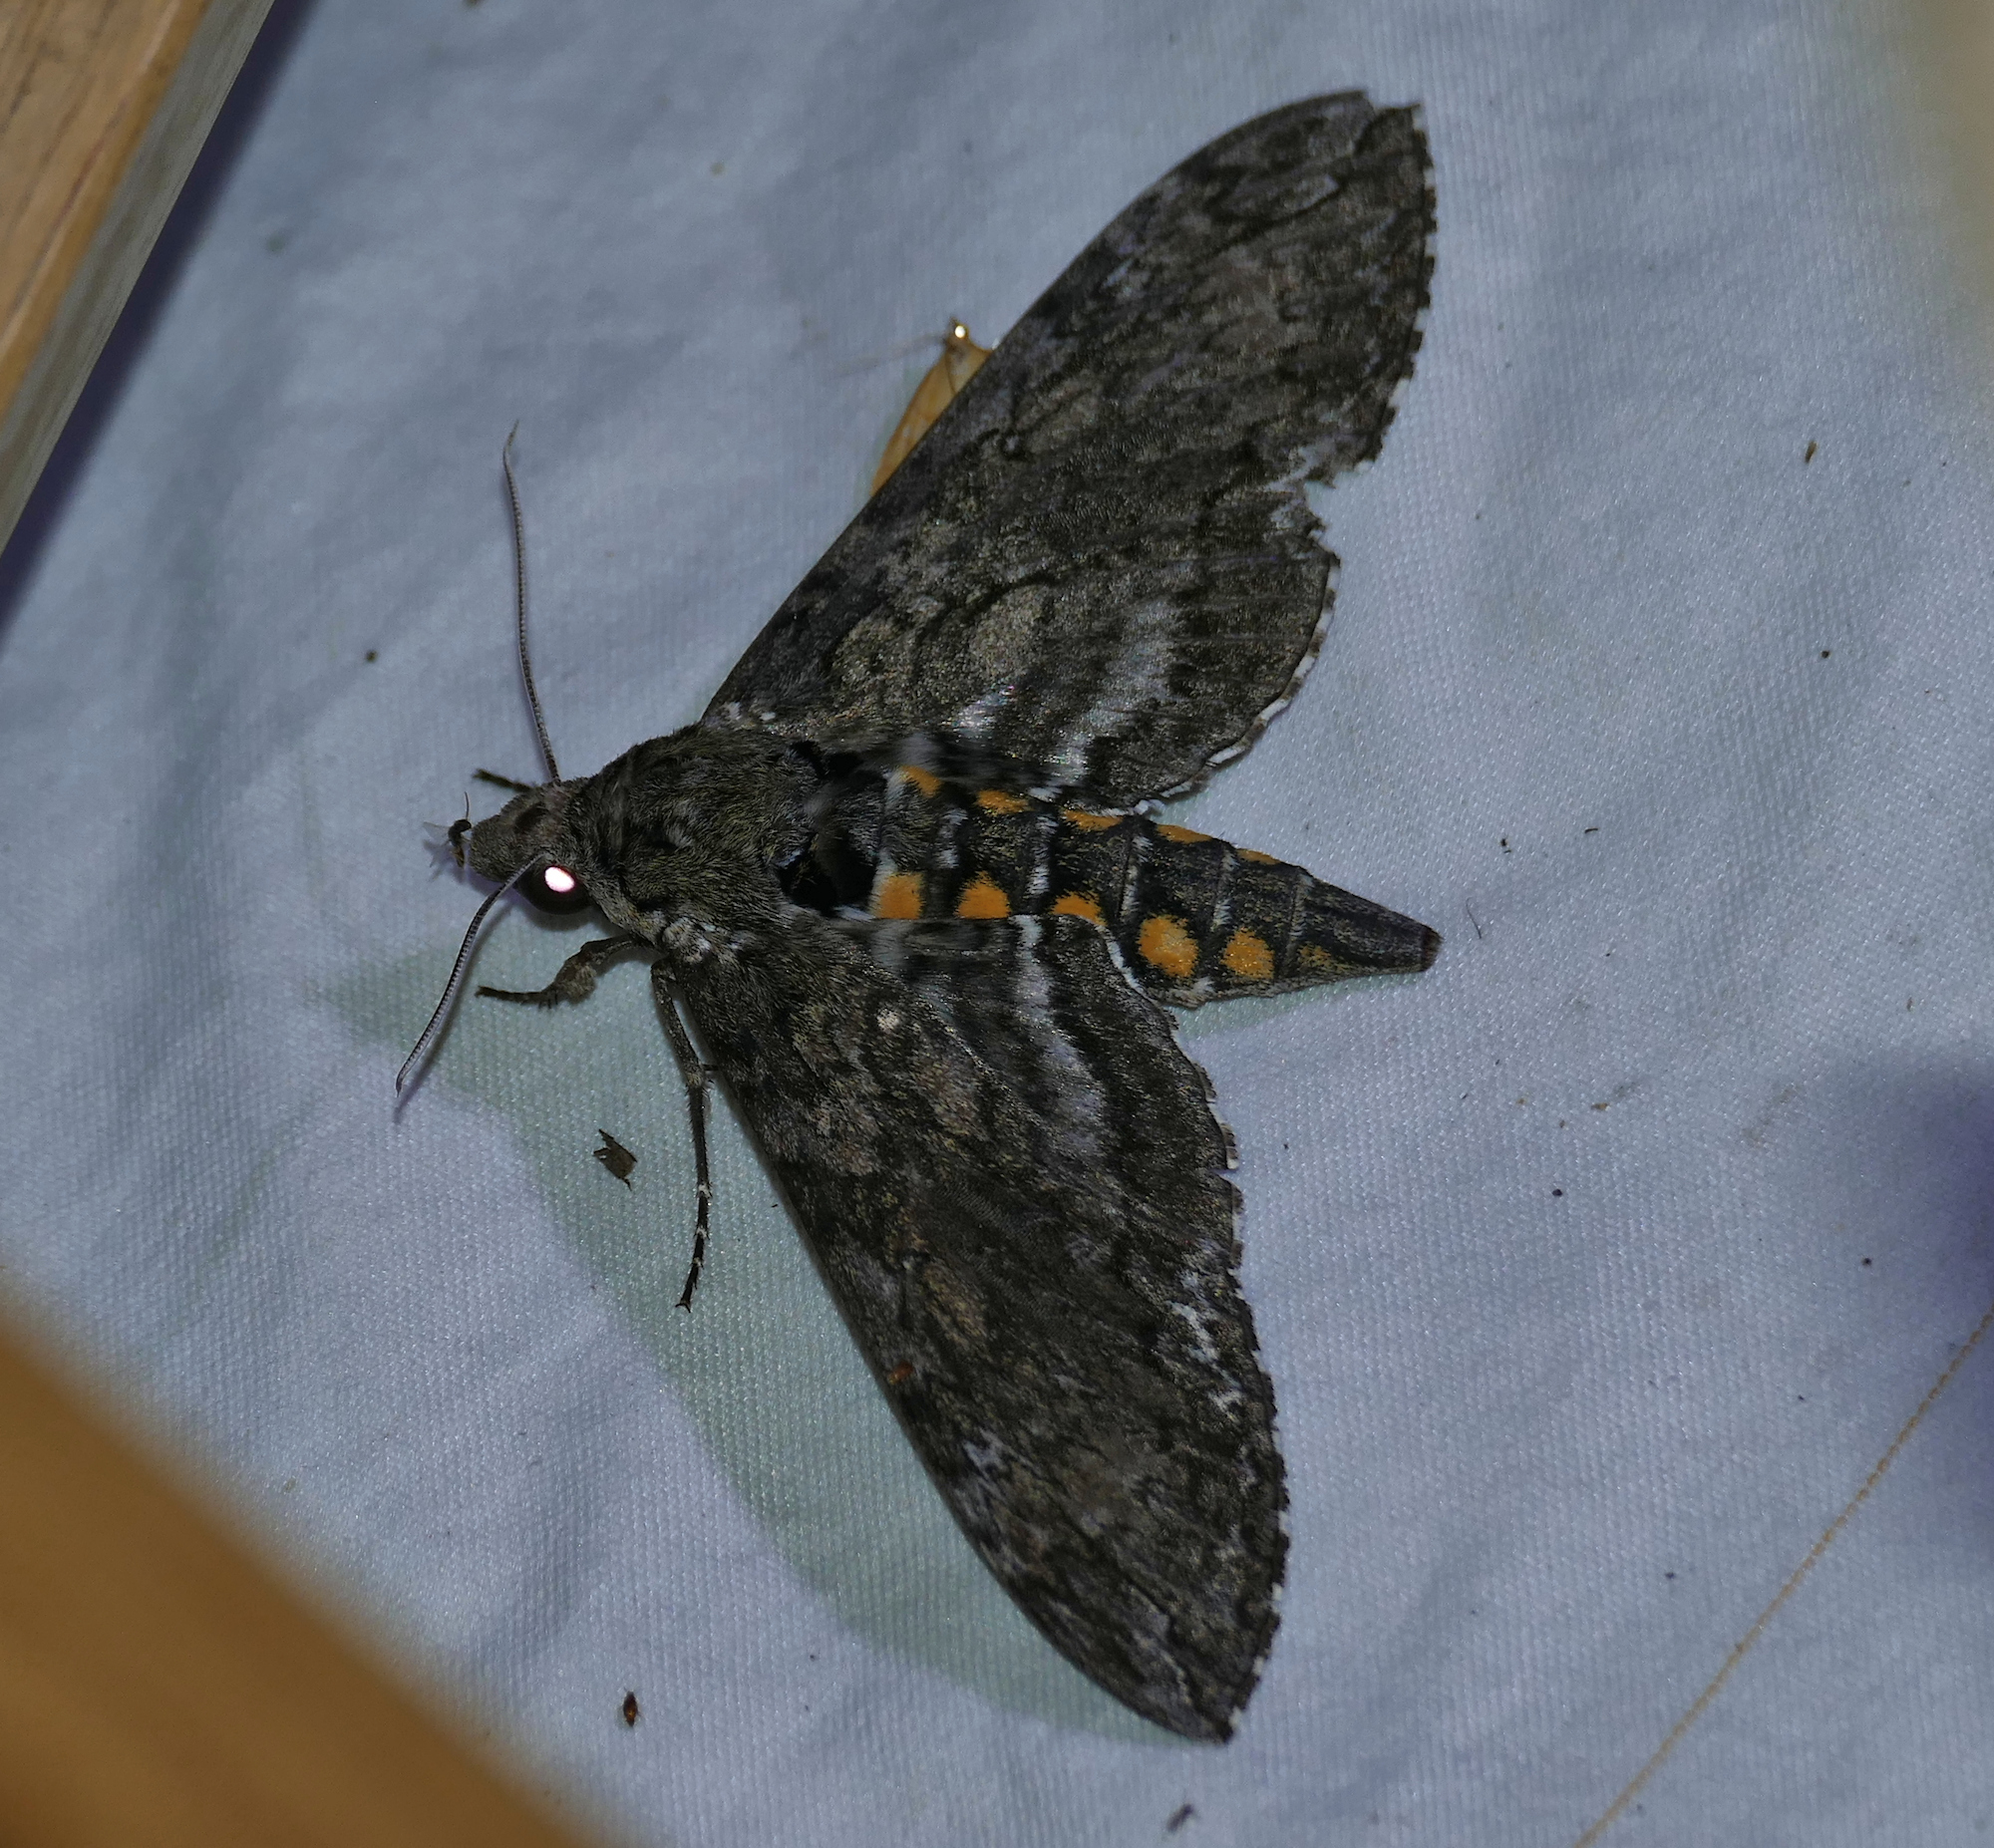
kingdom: Animalia
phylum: Arthropoda
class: Insecta
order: Lepidoptera
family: Sphingidae
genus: Manduca
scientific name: Manduca sexta
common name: Carolina sphinx
